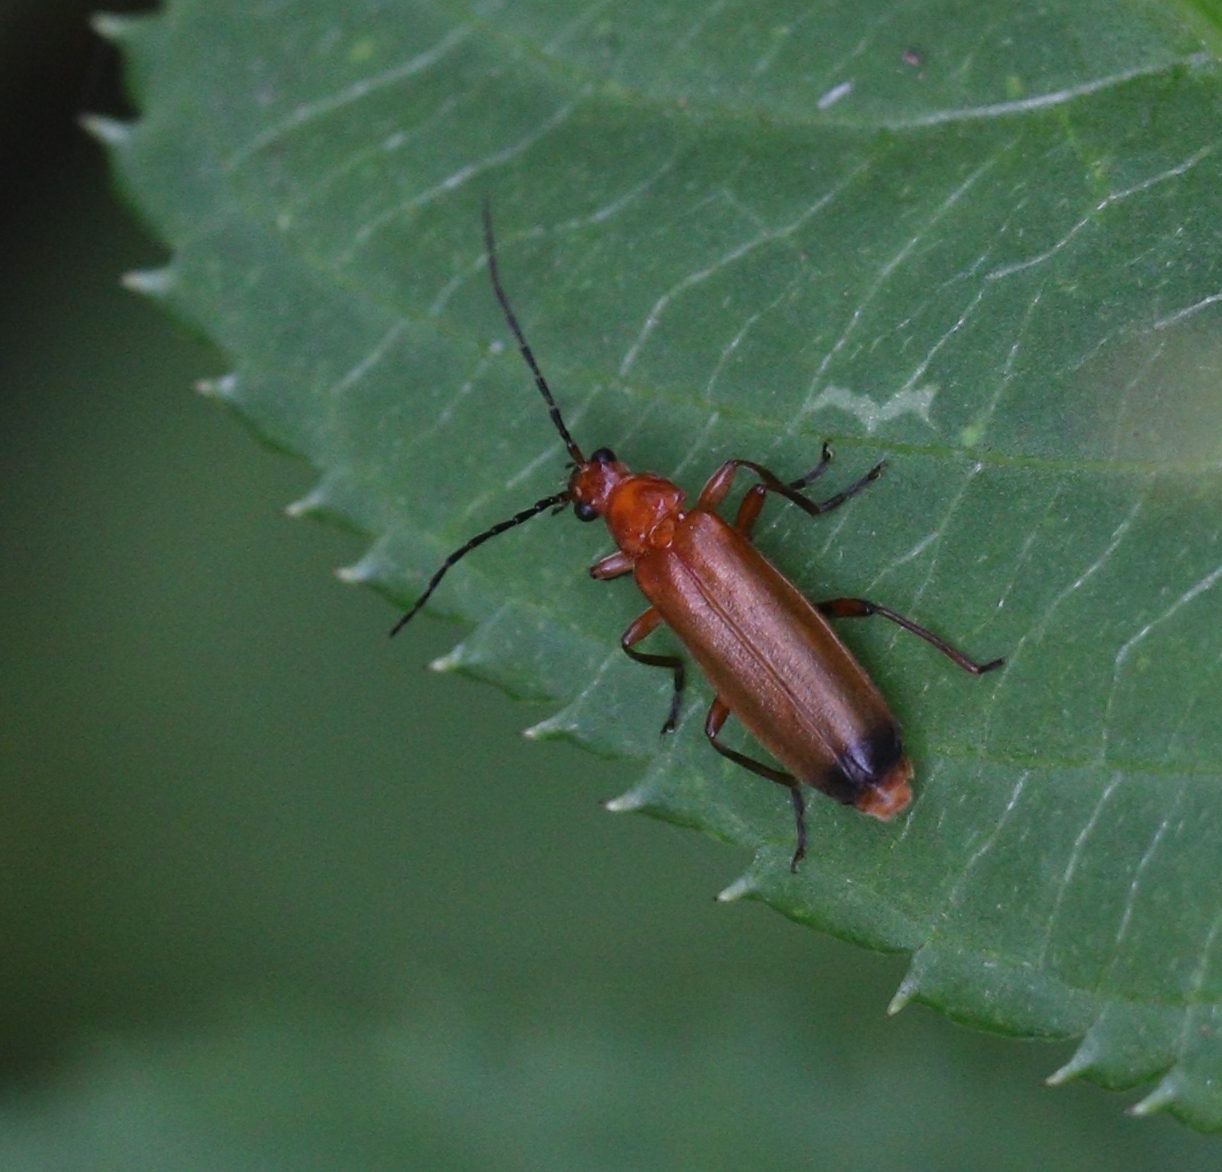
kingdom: Animalia
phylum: Arthropoda
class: Insecta
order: Coleoptera
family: Cantharidae
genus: Rhagonycha
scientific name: Rhagonycha fulva
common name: Common red soldier beetle
